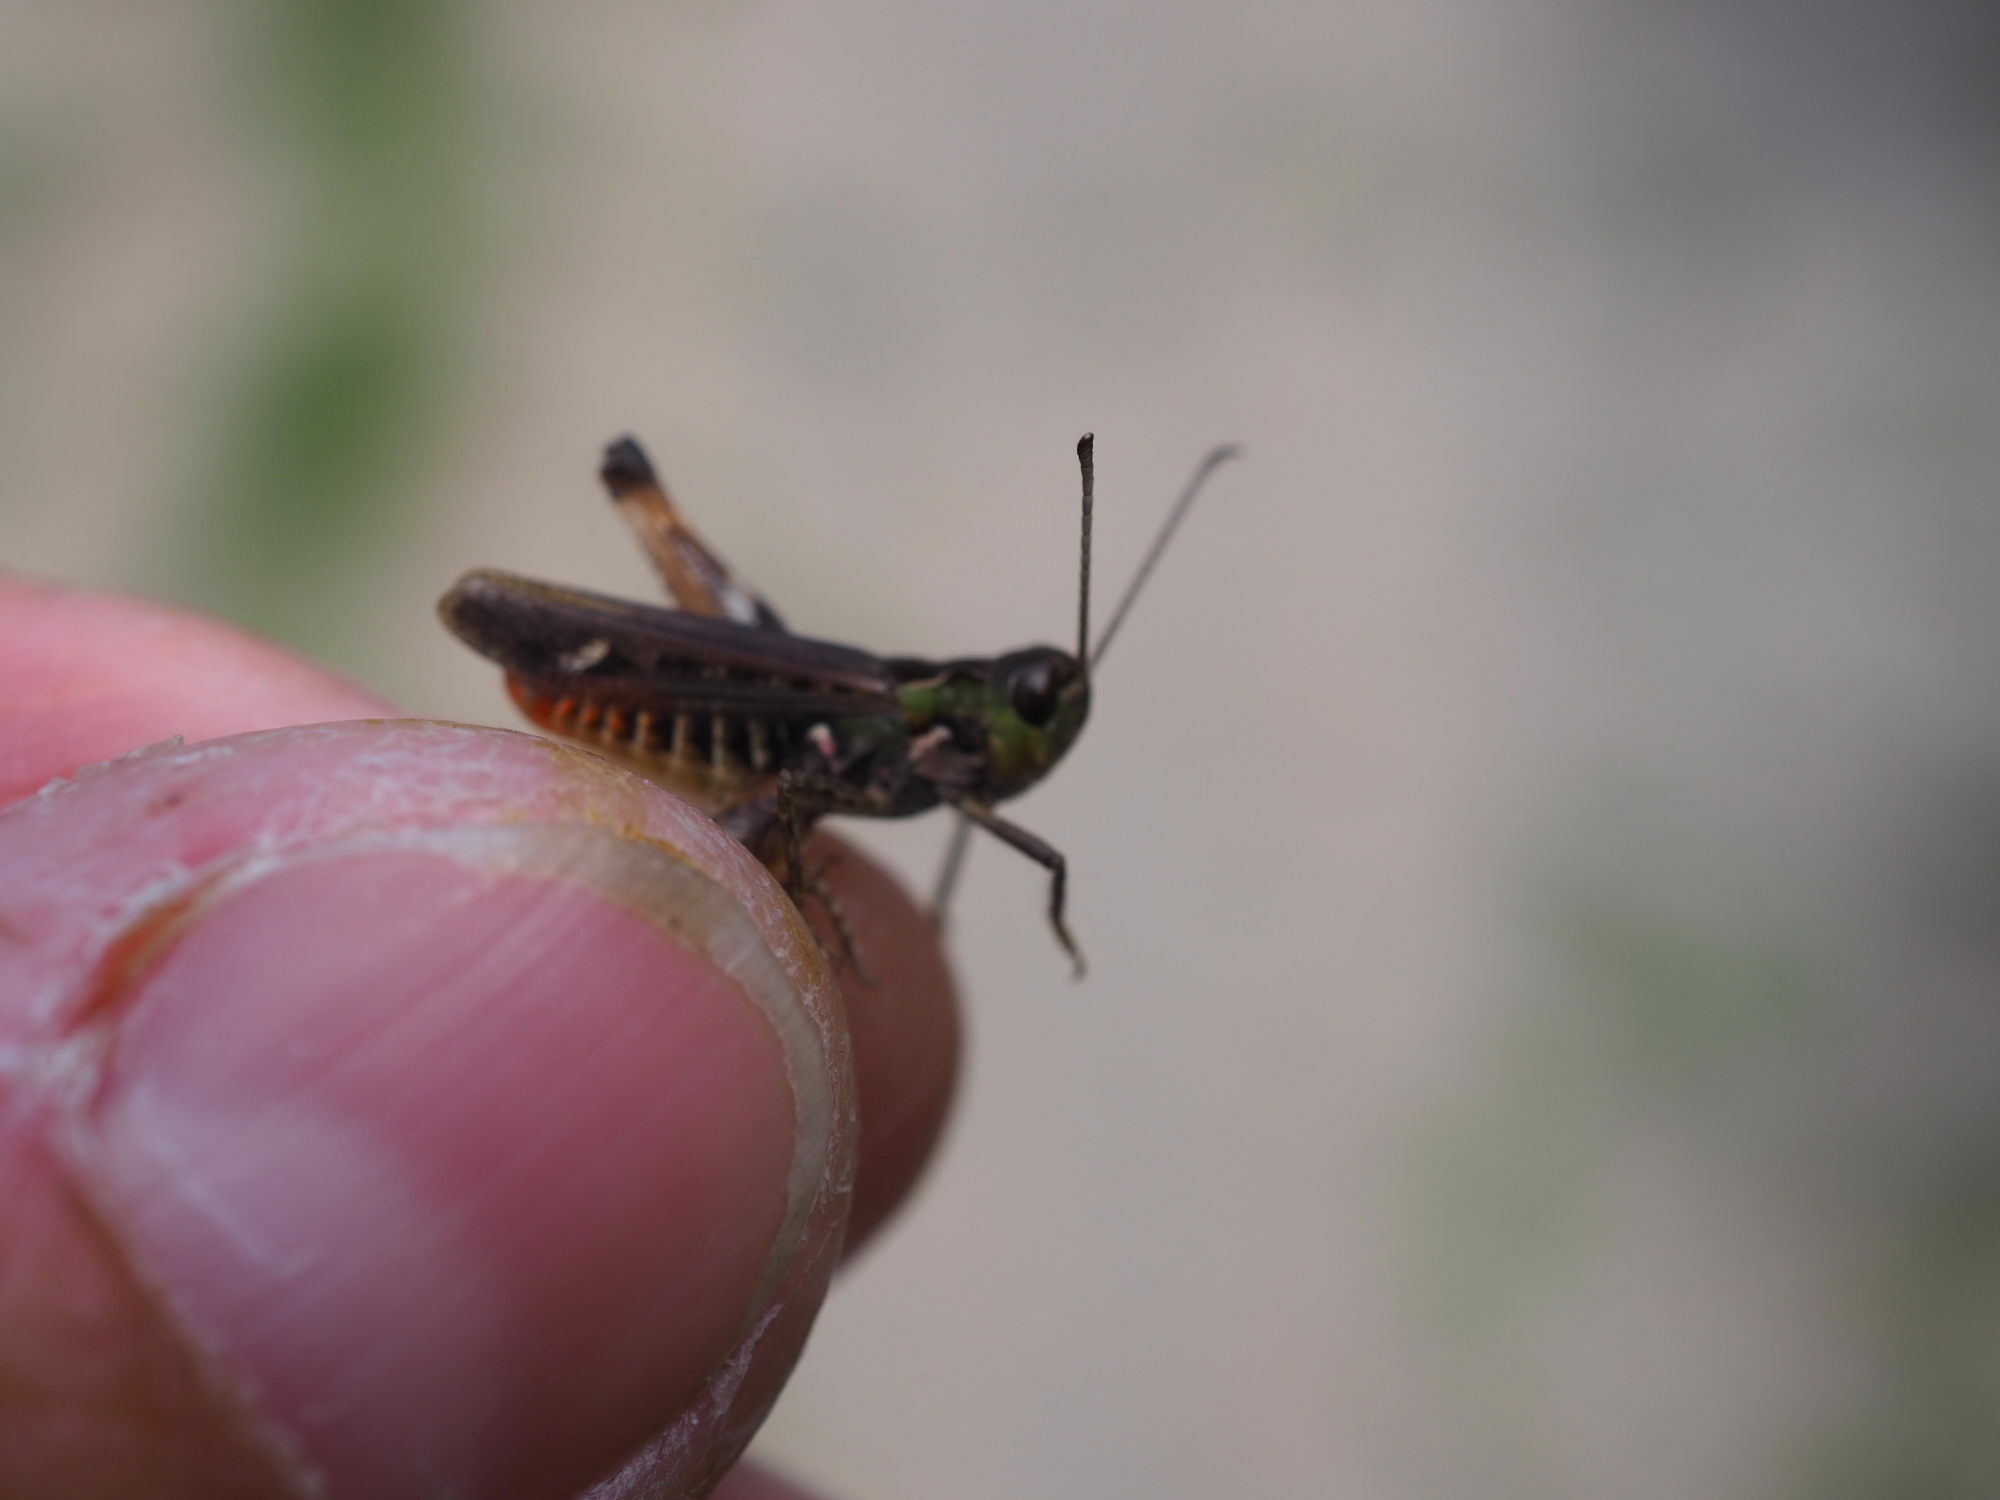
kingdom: Animalia
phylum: Arthropoda
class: Insecta
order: Orthoptera
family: Acrididae
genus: Myrmeleotettix
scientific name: Myrmeleotettix maculatus
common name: Mottled grasshopper
